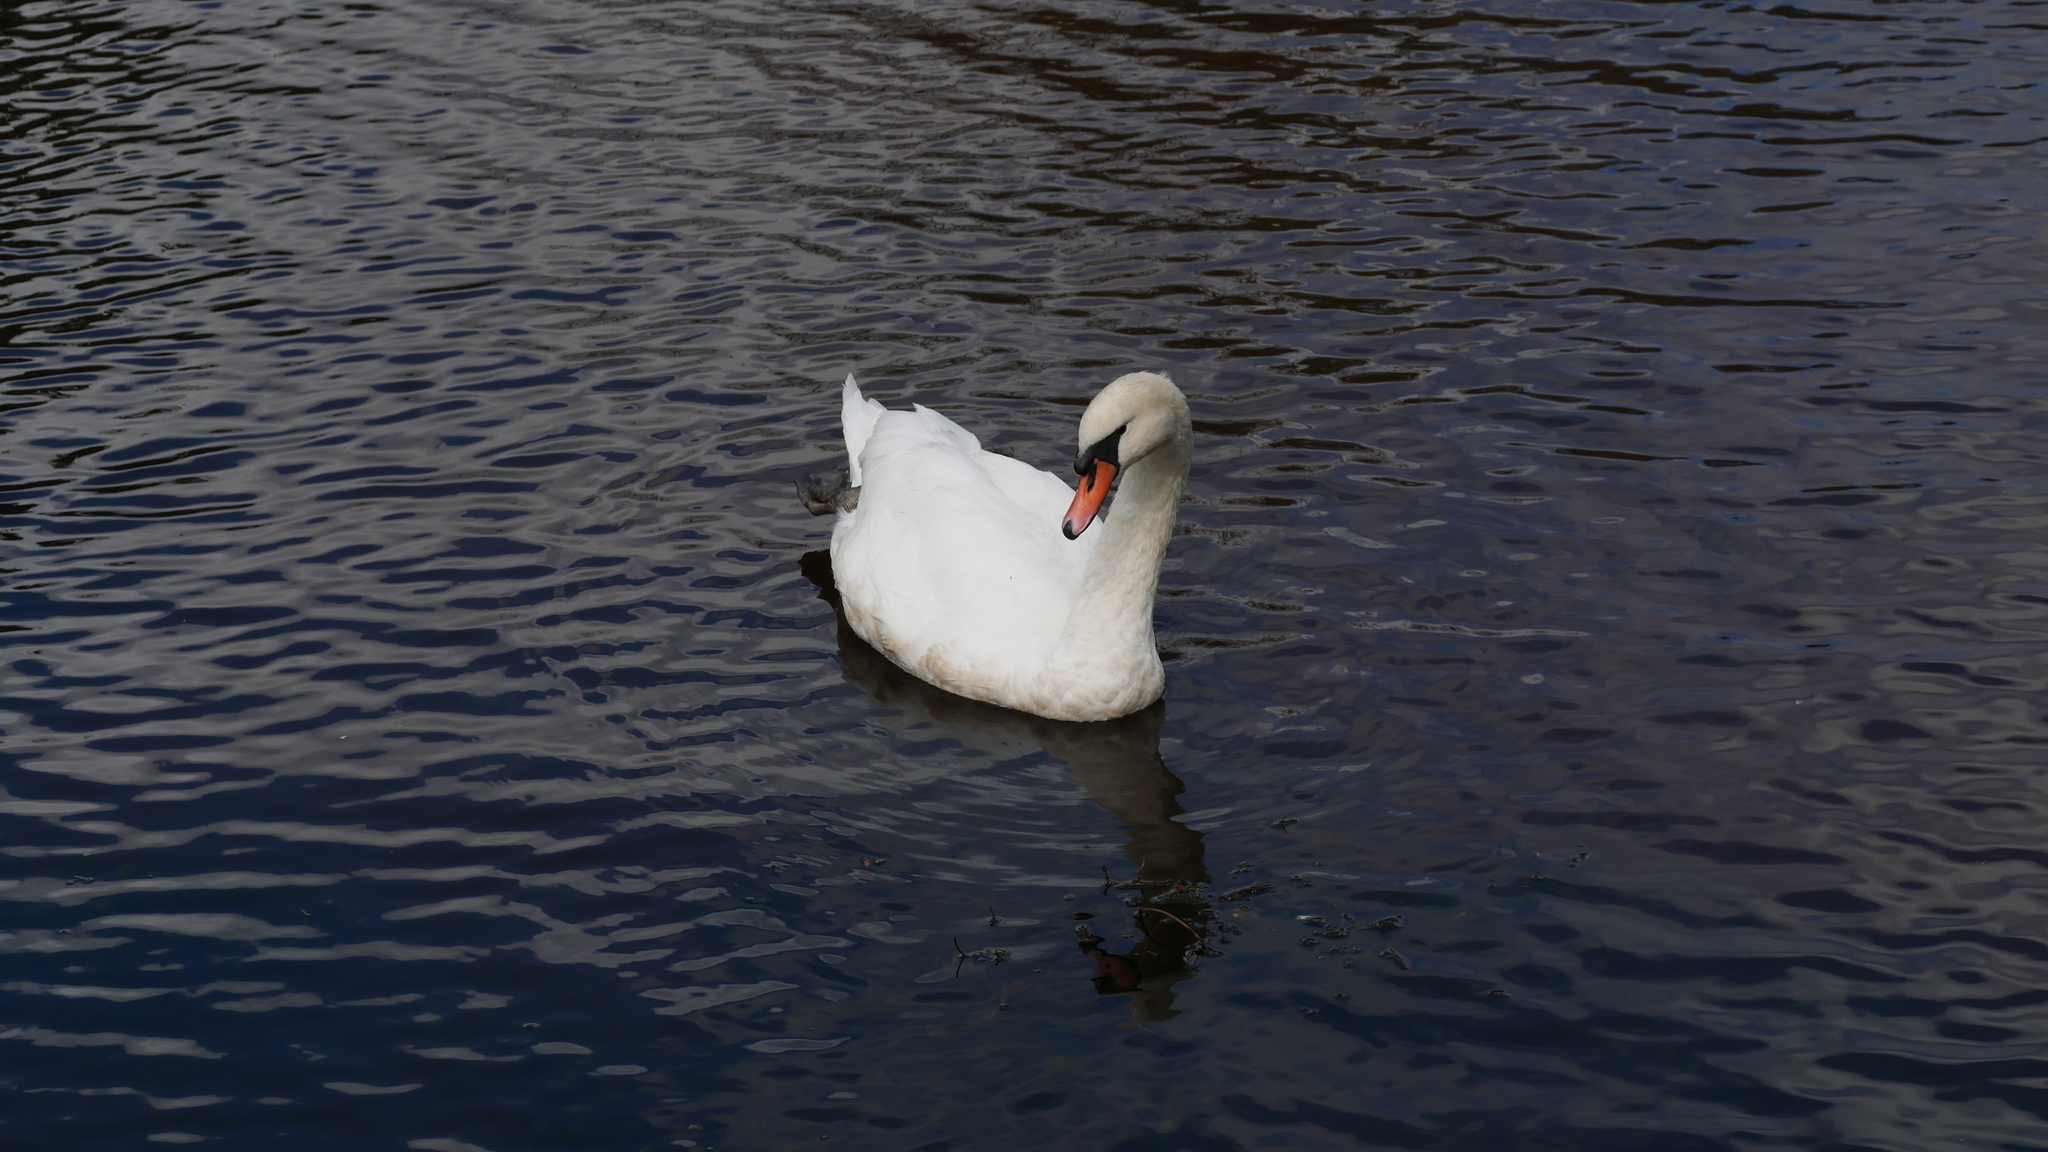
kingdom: Animalia
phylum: Chordata
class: Aves
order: Anseriformes
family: Anatidae
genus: Cygnus
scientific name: Cygnus olor
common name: Mute swan
